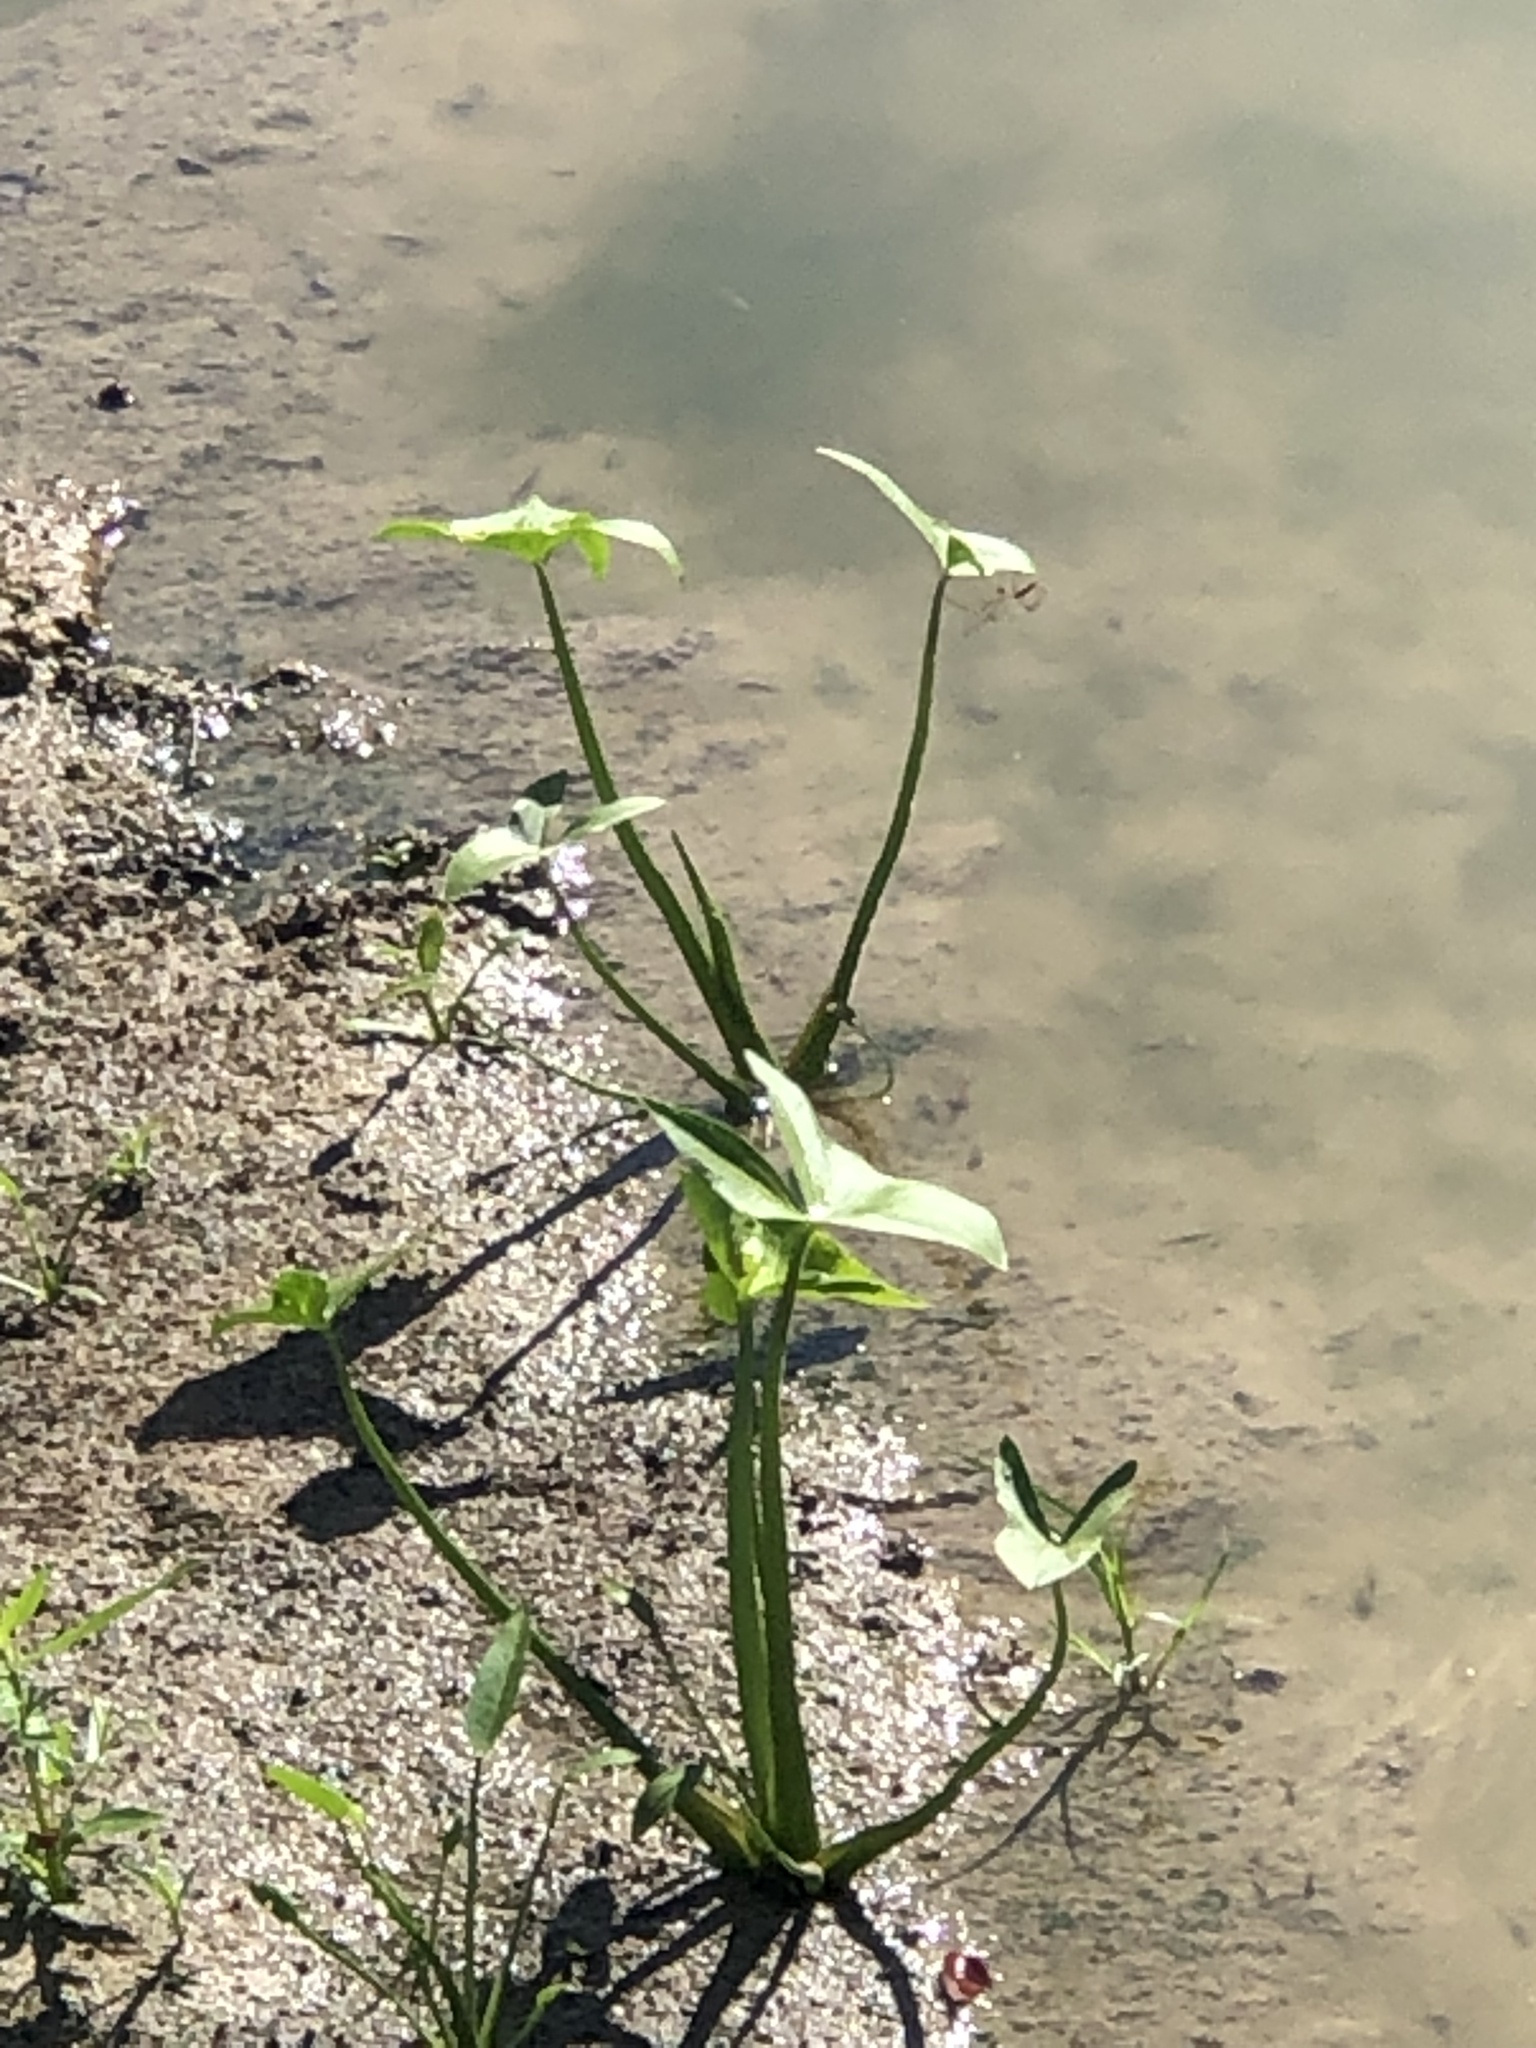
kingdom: Plantae
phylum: Tracheophyta
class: Liliopsida
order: Alismatales
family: Alismataceae
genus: Sagittaria
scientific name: Sagittaria calycina
